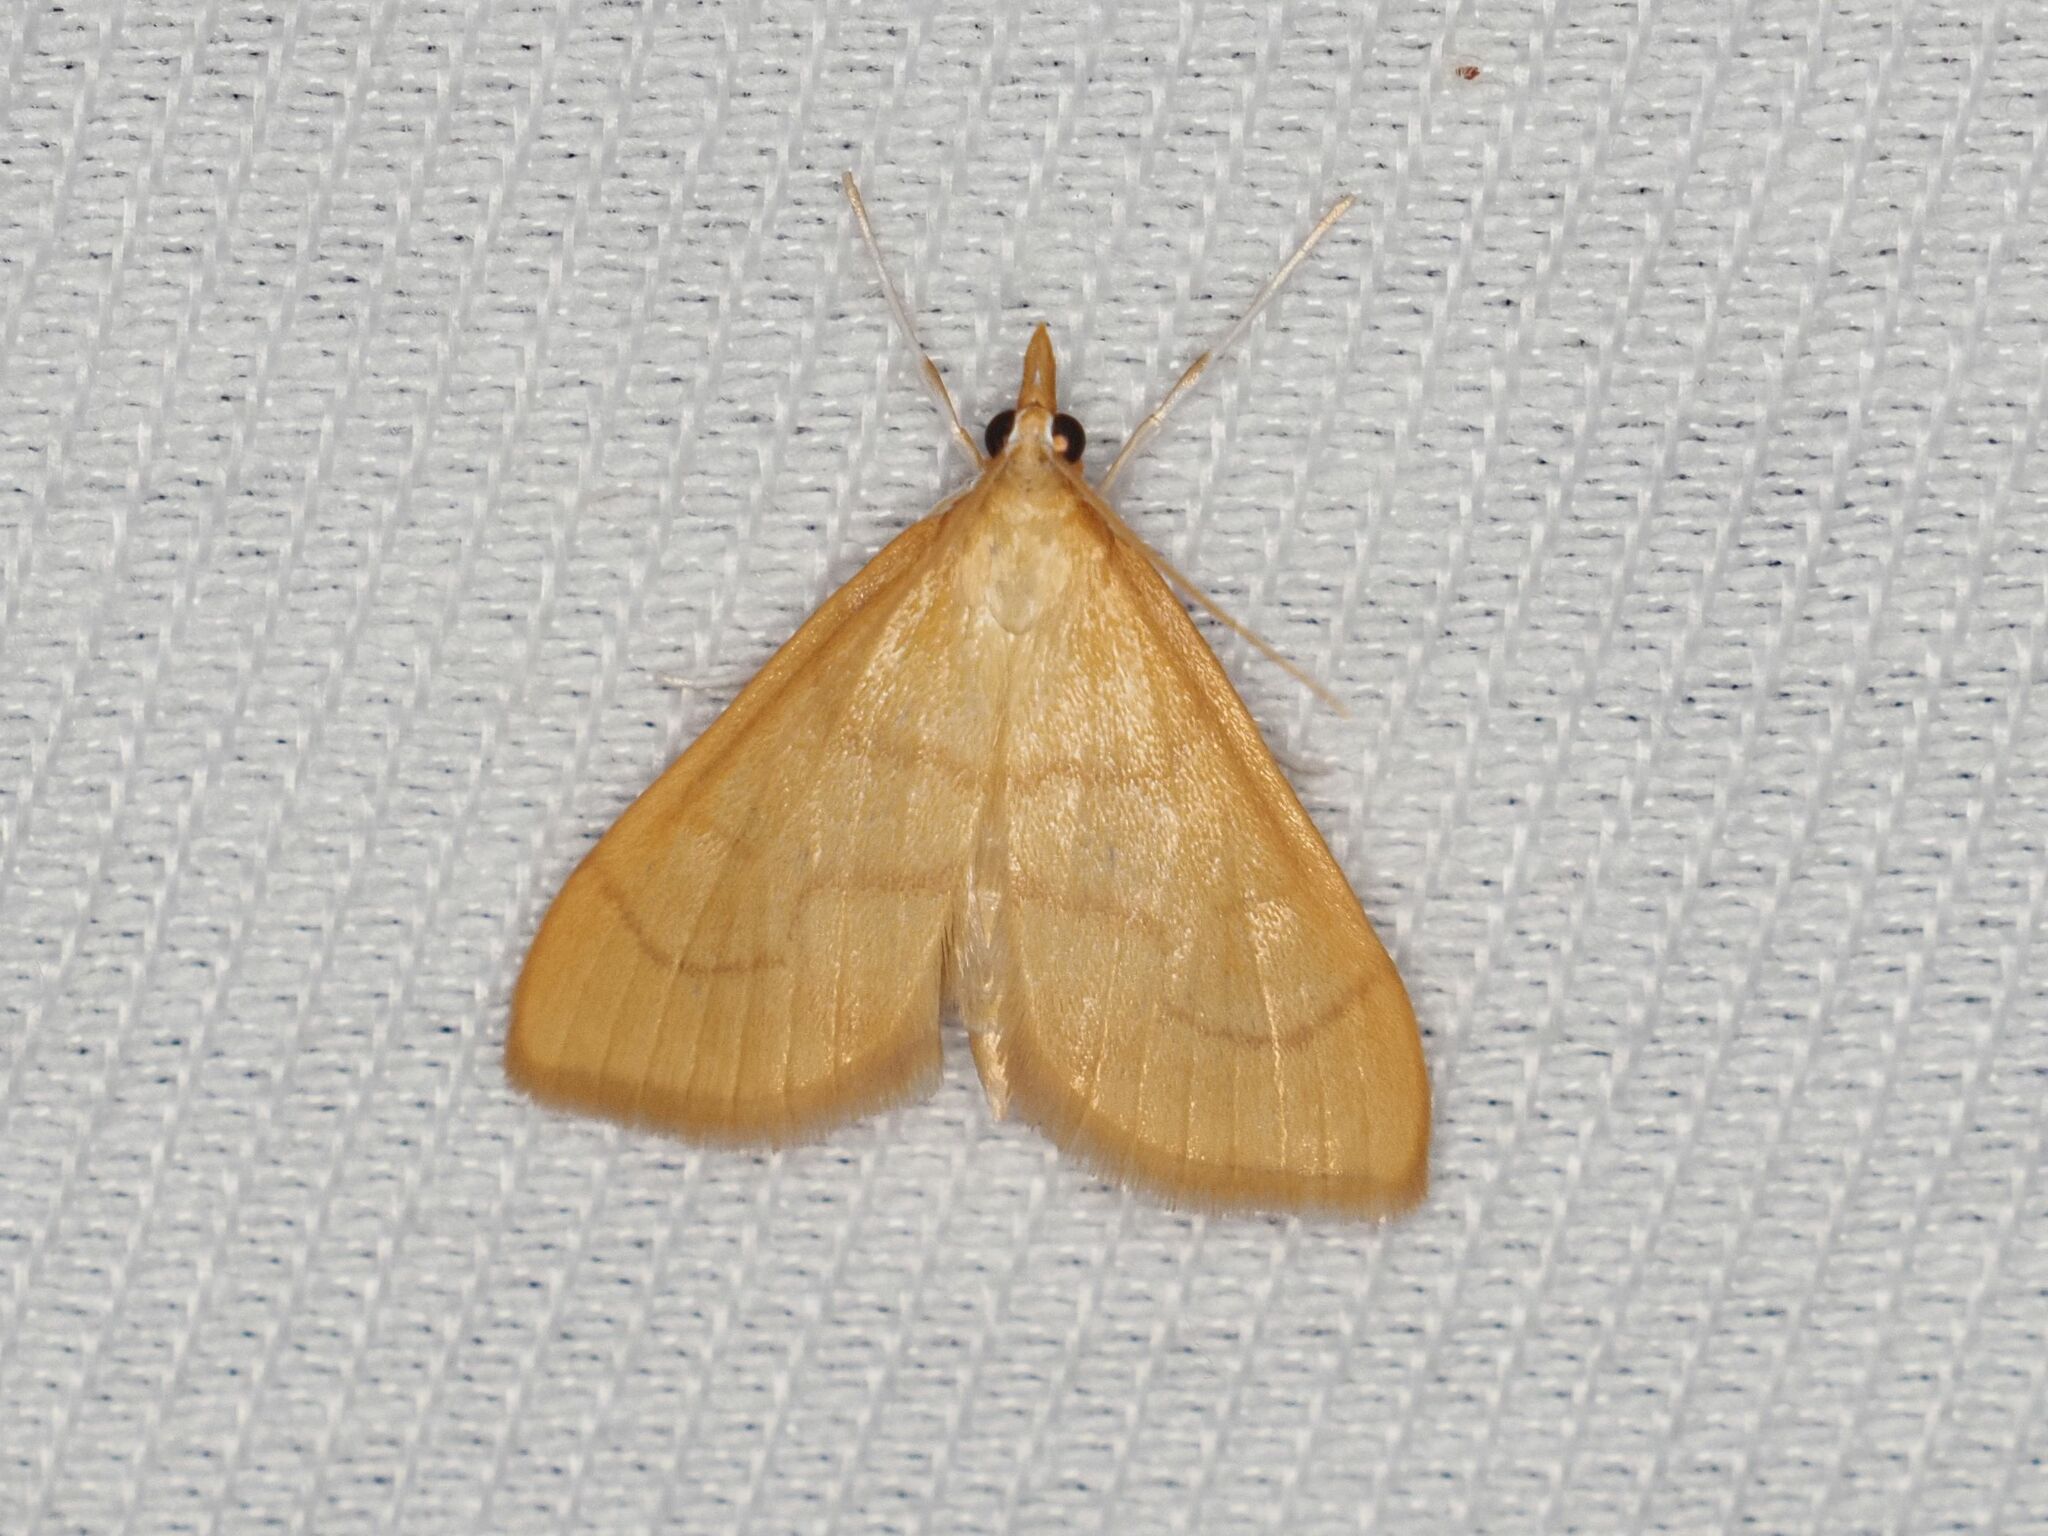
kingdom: Animalia
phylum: Arthropoda
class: Insecta
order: Lepidoptera
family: Crambidae
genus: Anania
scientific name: Anania crocealis
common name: Ochreous pearl
